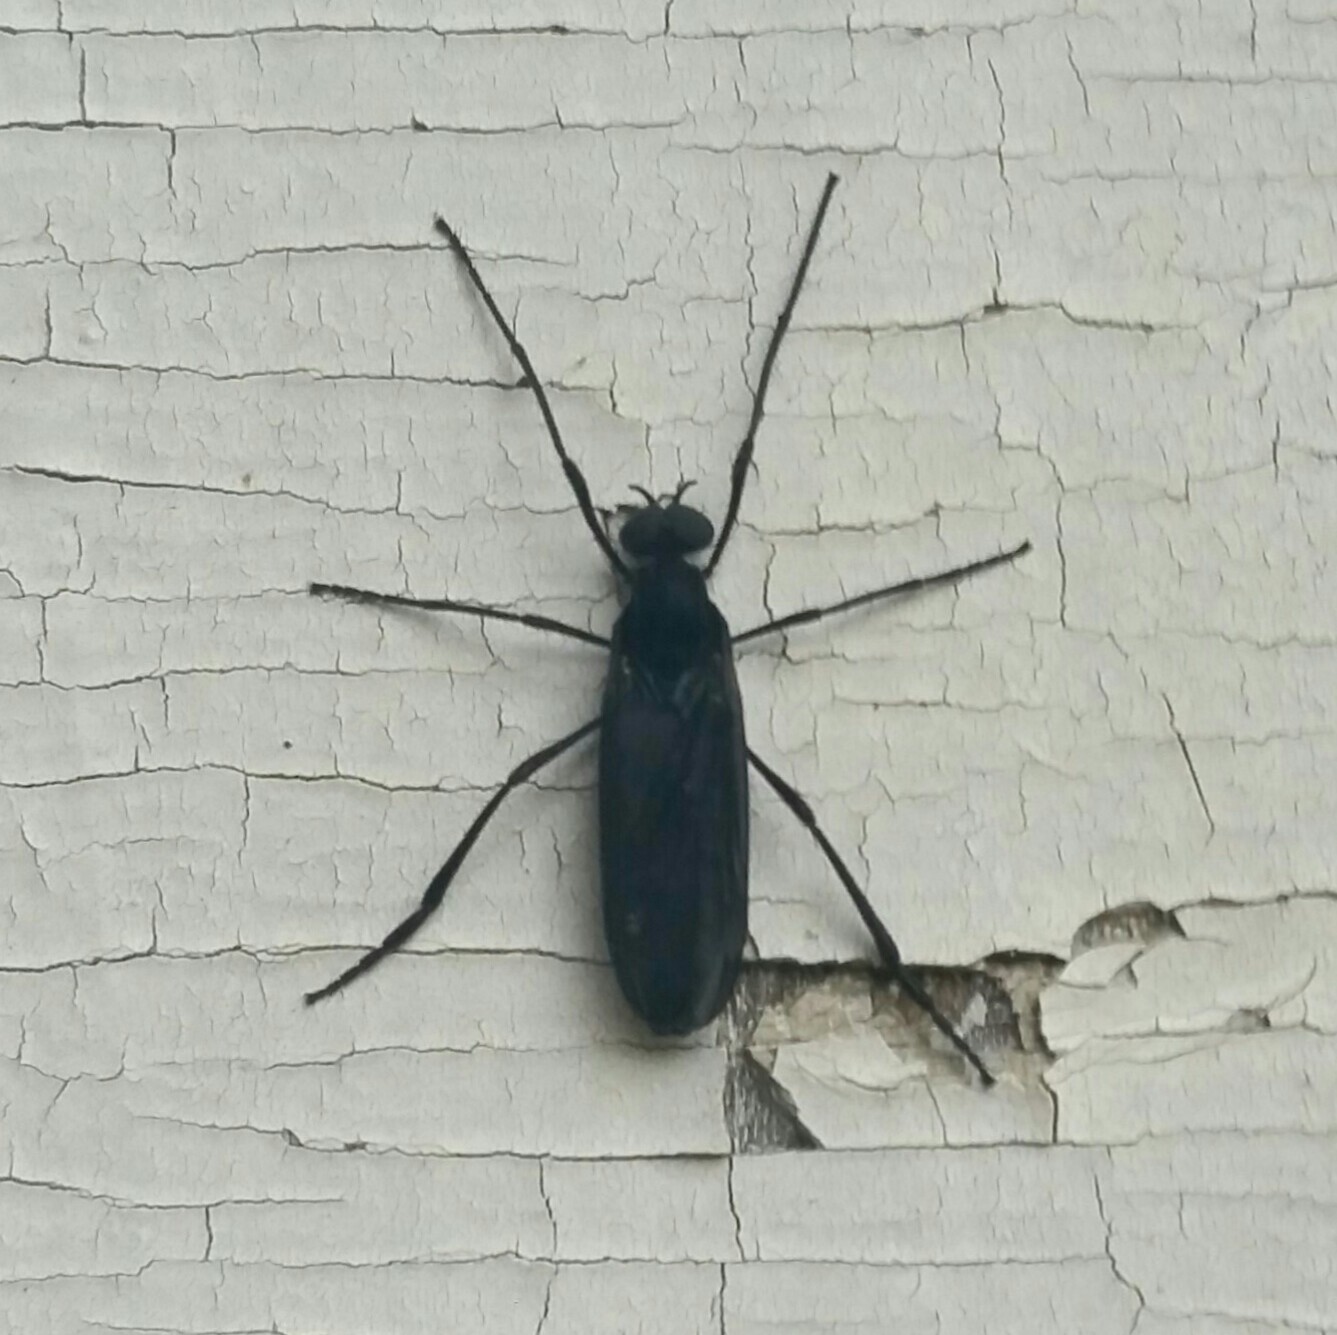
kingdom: Animalia
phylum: Arthropoda
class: Insecta
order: Diptera
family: Bibionidae
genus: Penthetria
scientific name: Penthetria heteroptera
